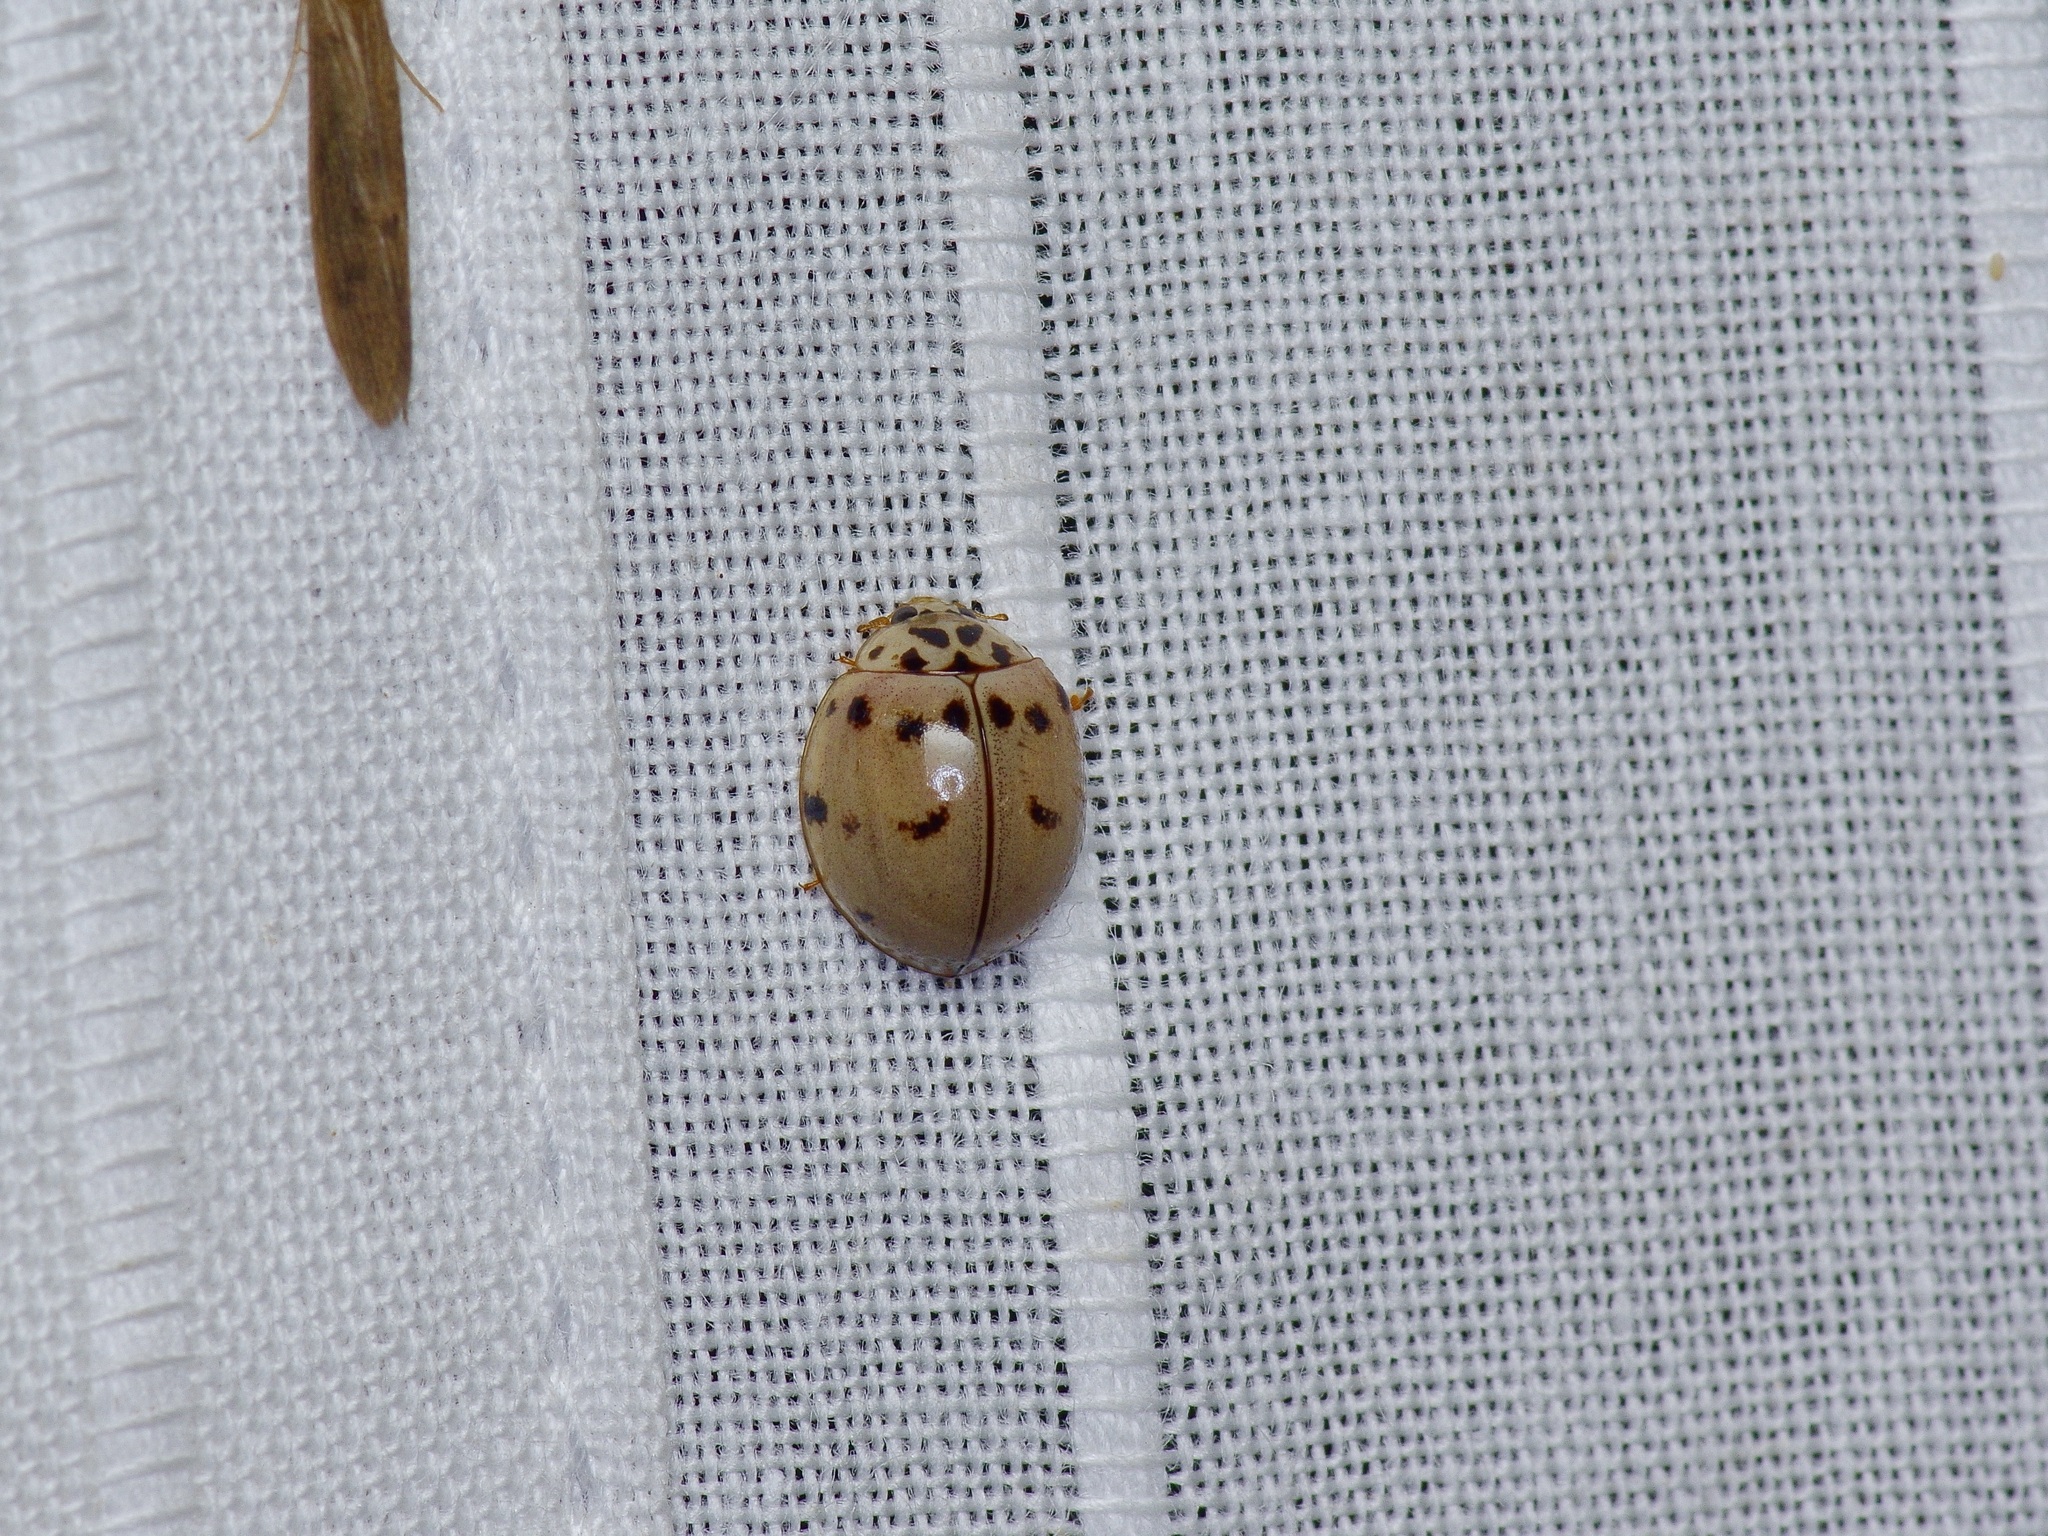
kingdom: Animalia
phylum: Arthropoda
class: Insecta
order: Coleoptera
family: Coccinellidae
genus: Olla
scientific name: Olla v-nigrum
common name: Ashy gray lady beetle
